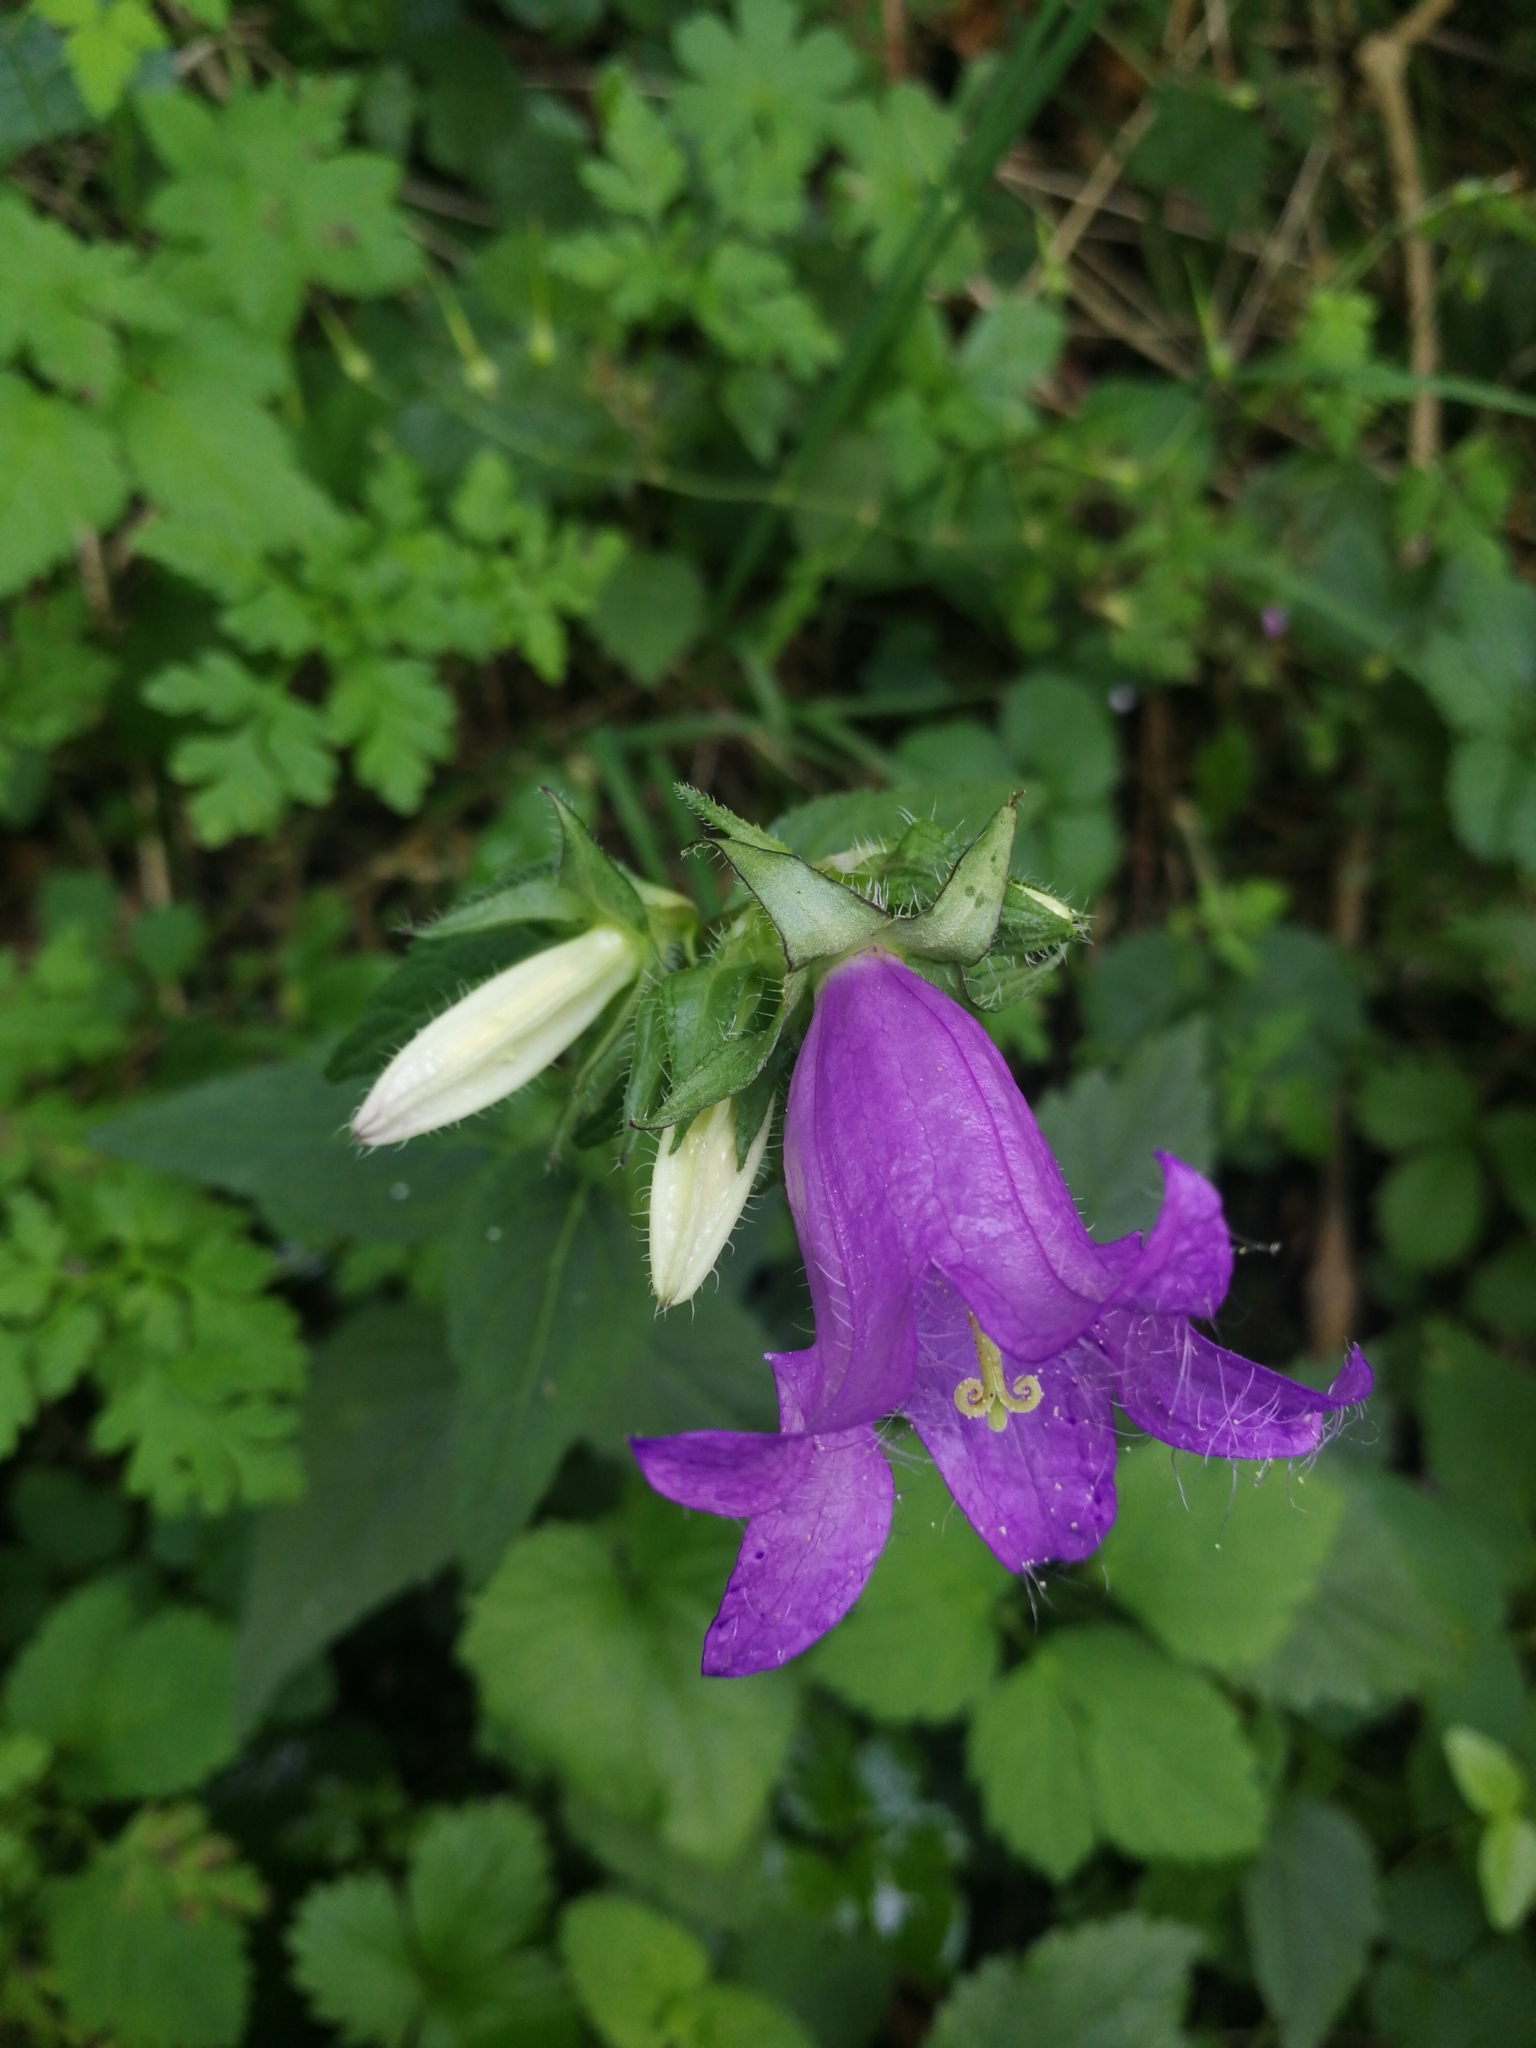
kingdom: Plantae
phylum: Tracheophyta
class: Magnoliopsida
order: Asterales
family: Campanulaceae
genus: Campanula
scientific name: Campanula trachelium
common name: Nettle-leaved bellflower
